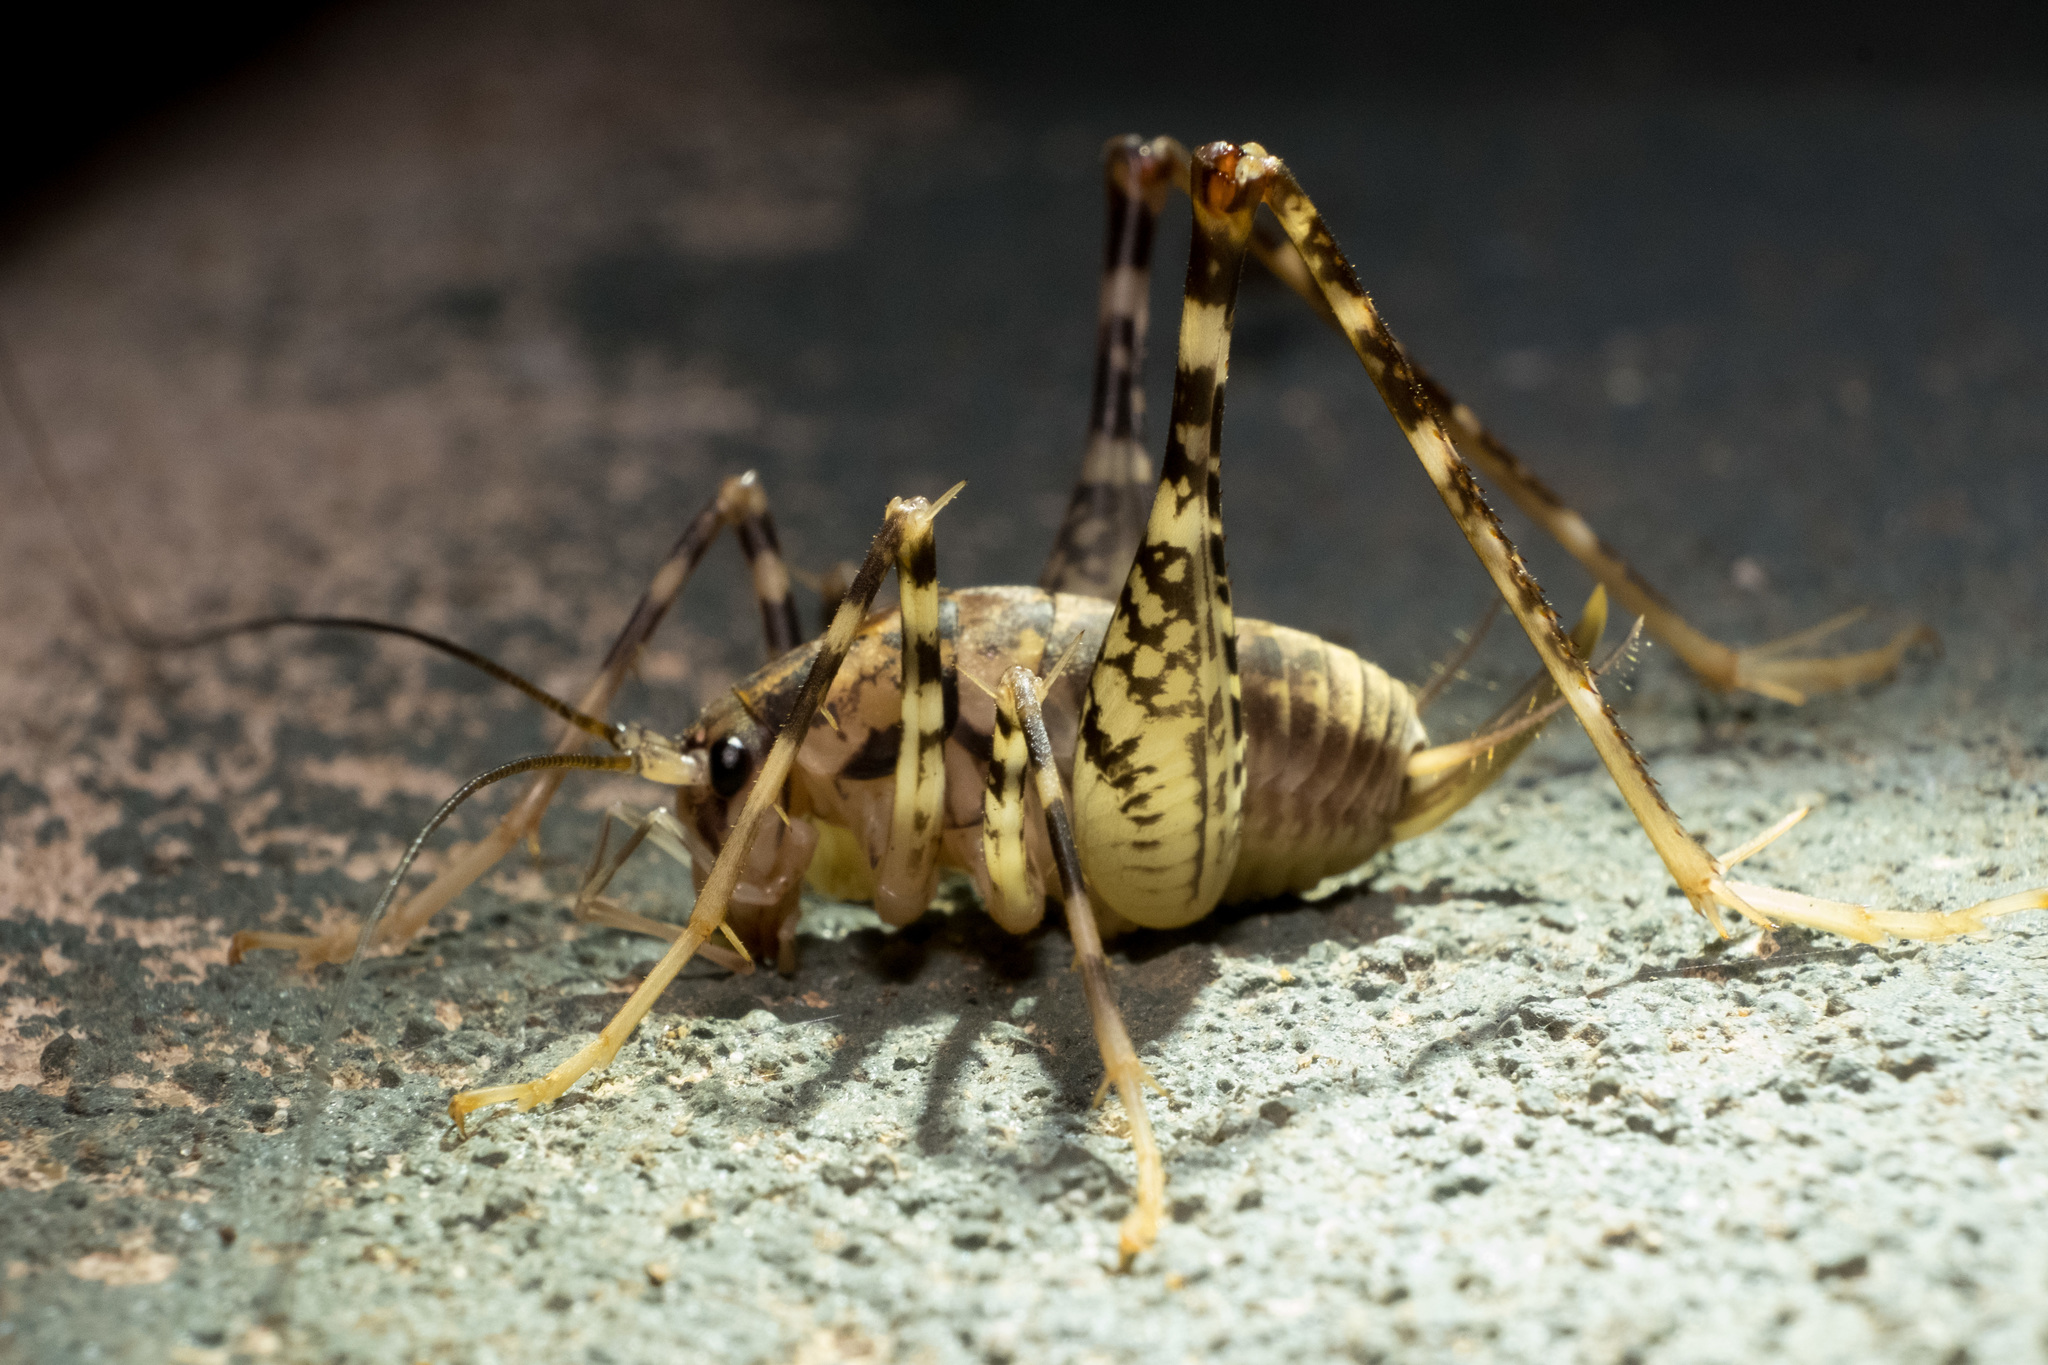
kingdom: Animalia
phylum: Arthropoda
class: Insecta
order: Orthoptera
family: Rhaphidophoridae
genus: Diestrammena
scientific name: Diestrammena japanica
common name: Japanese camel cricket
